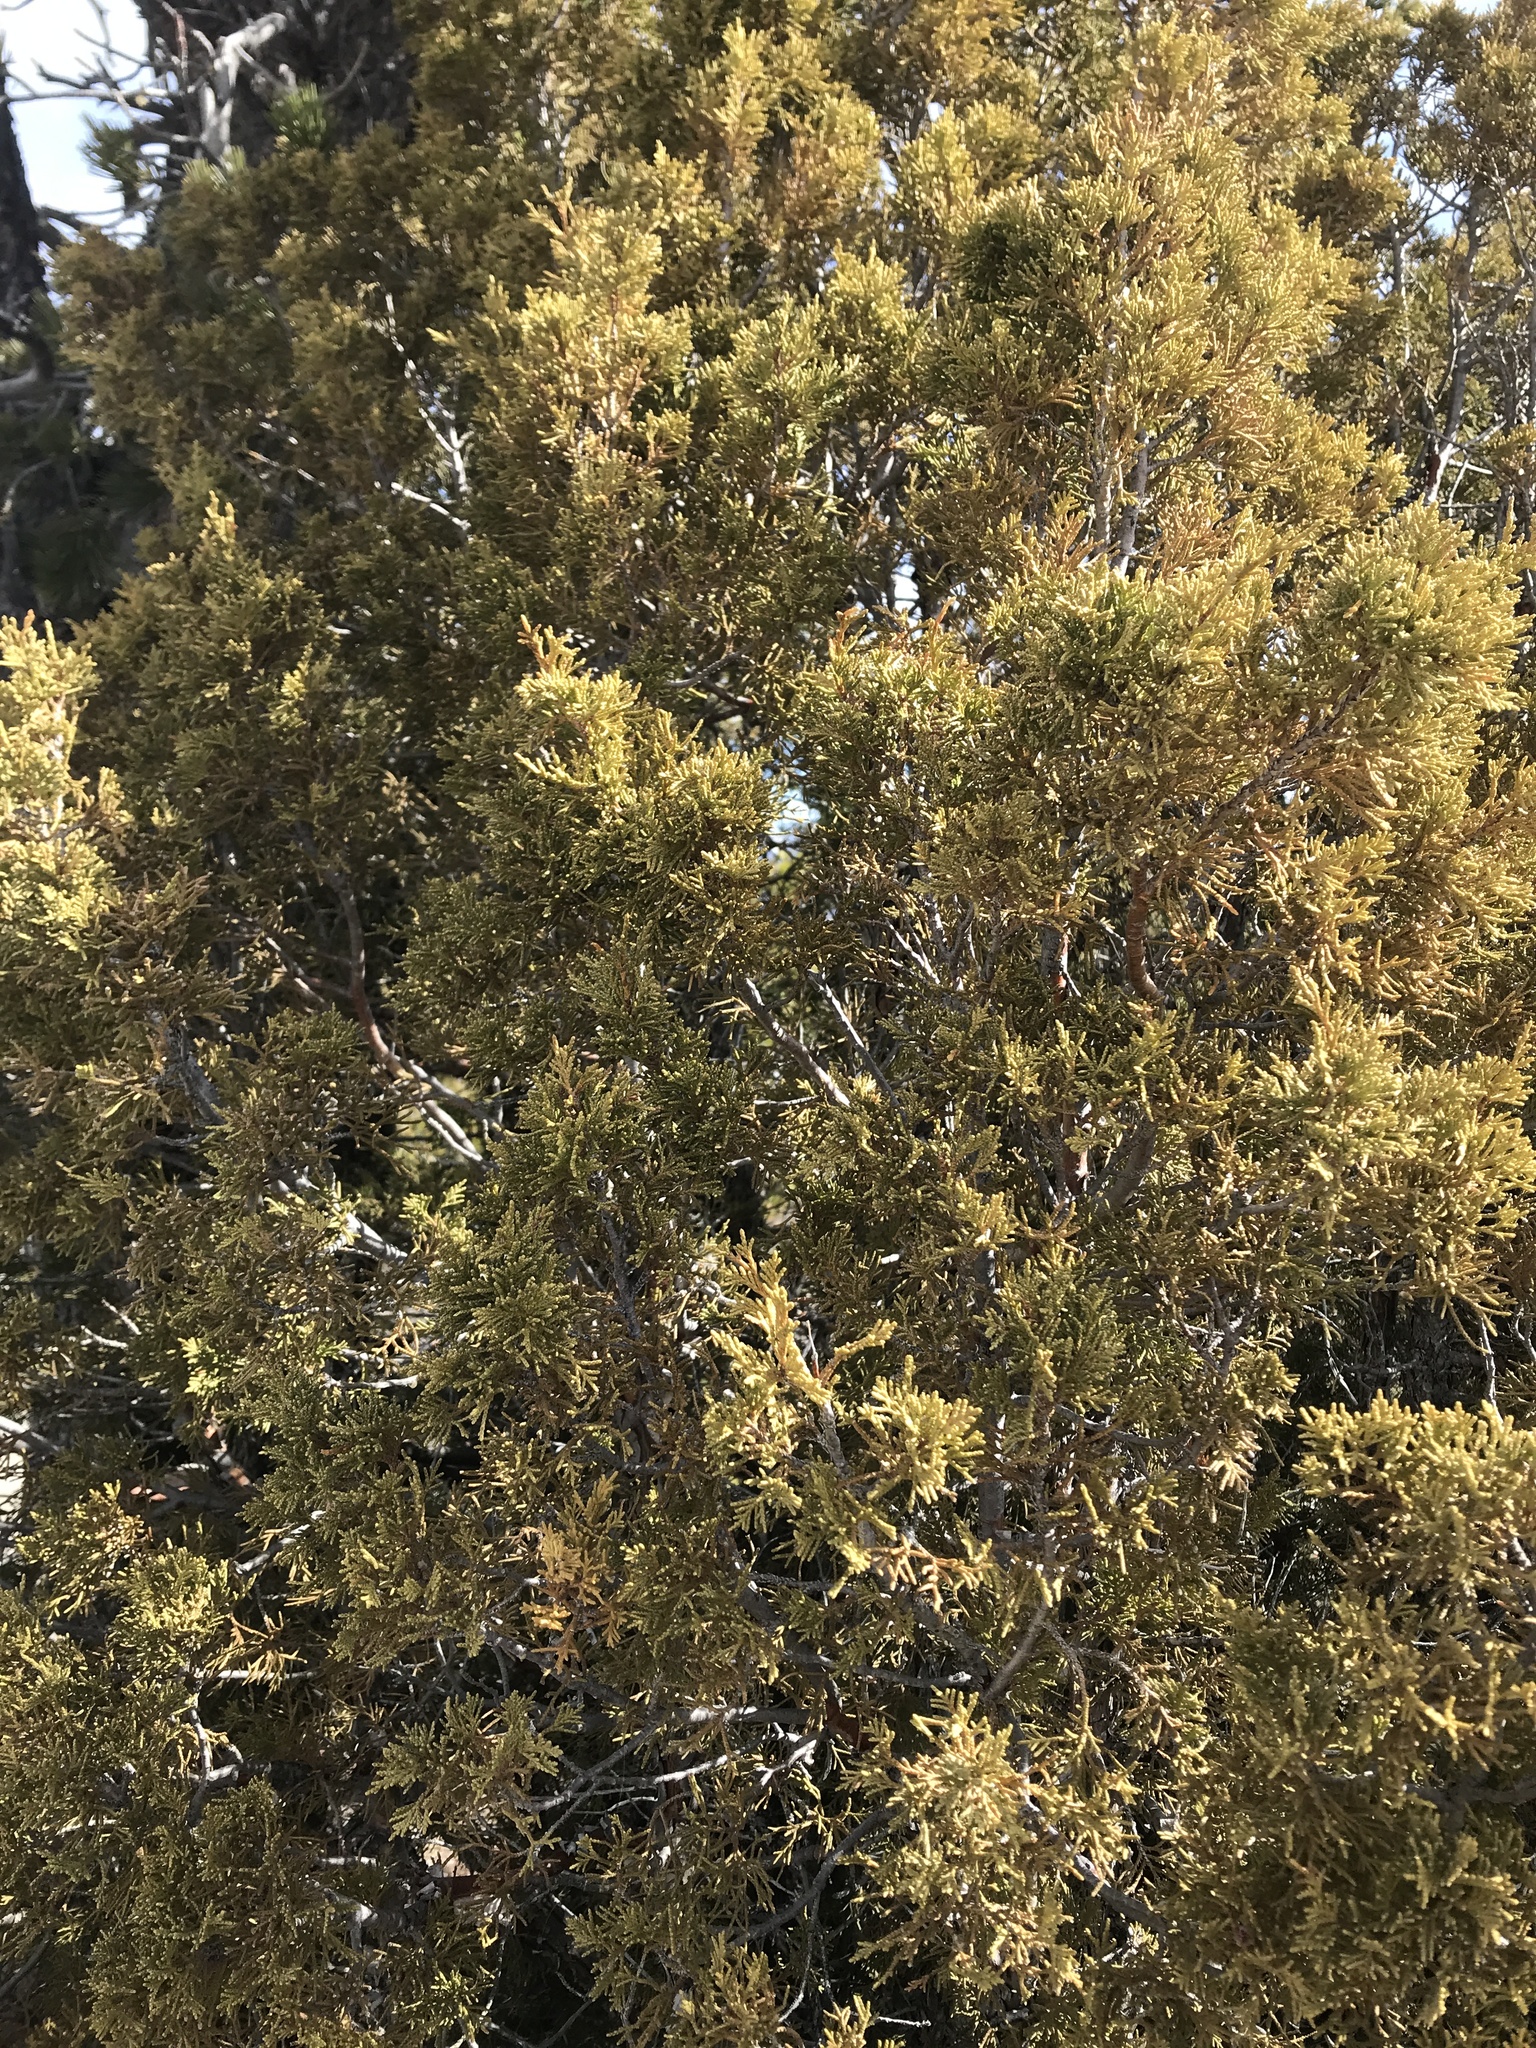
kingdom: Plantae
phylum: Tracheophyta
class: Pinopsida
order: Pinales
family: Cupressaceae
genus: Juniperus
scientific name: Juniperus scopulorum
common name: Rocky mountain juniper
